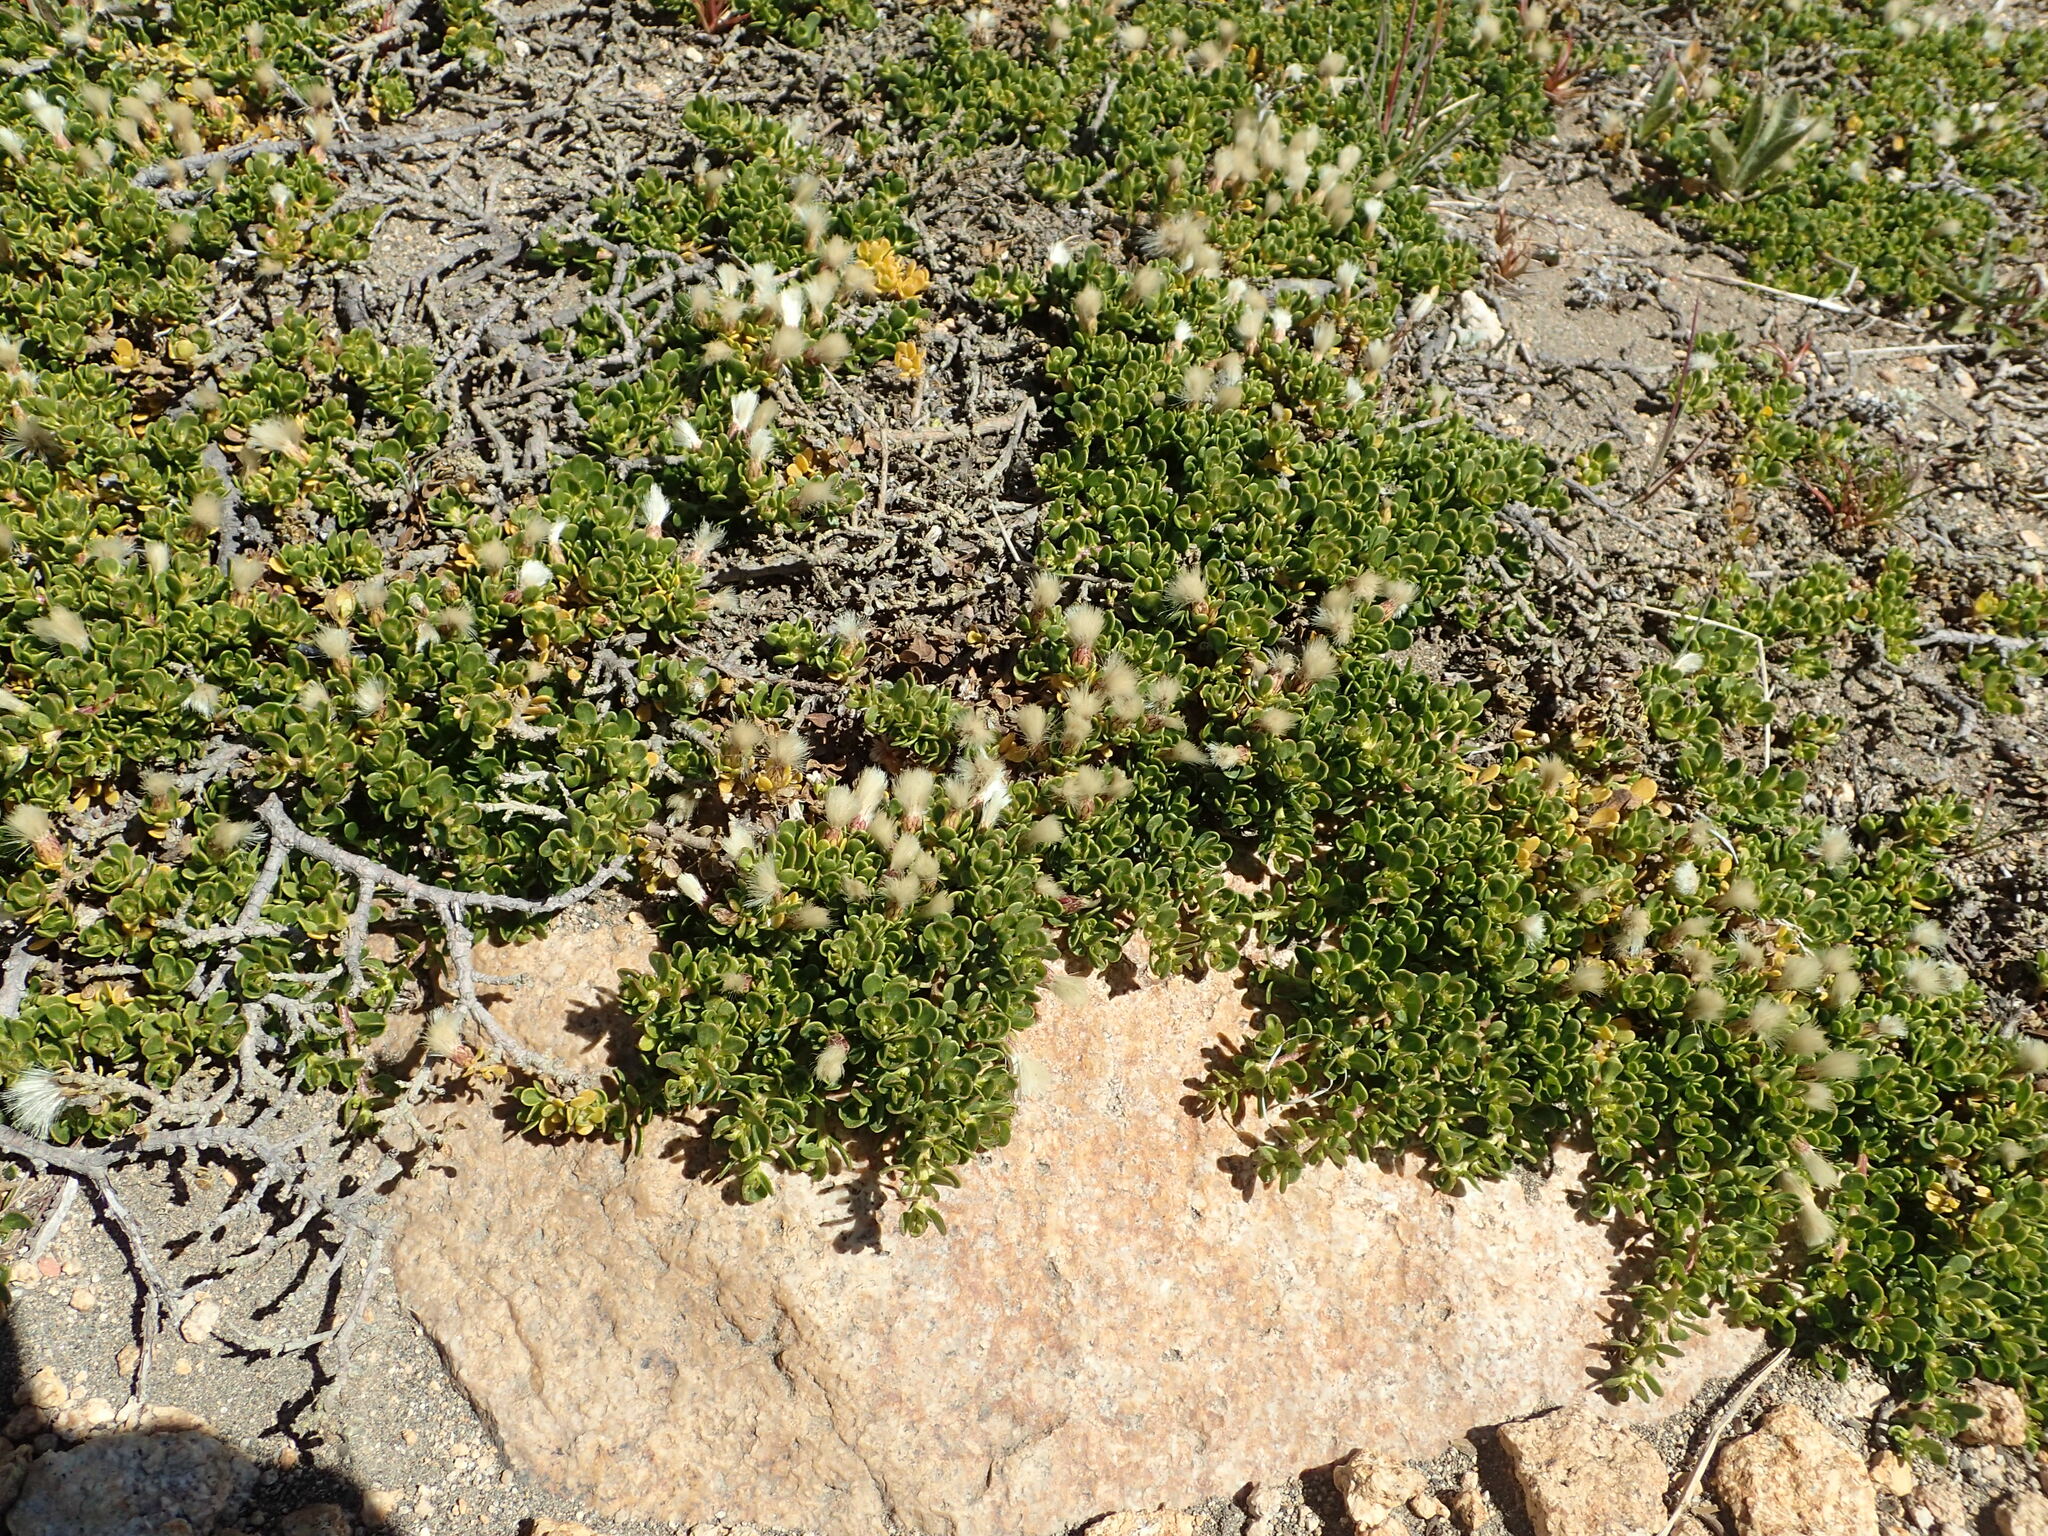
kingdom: Plantae
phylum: Tracheophyta
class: Magnoliopsida
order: Asterales
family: Asteraceae
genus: Baccharis
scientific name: Baccharis magellanica
